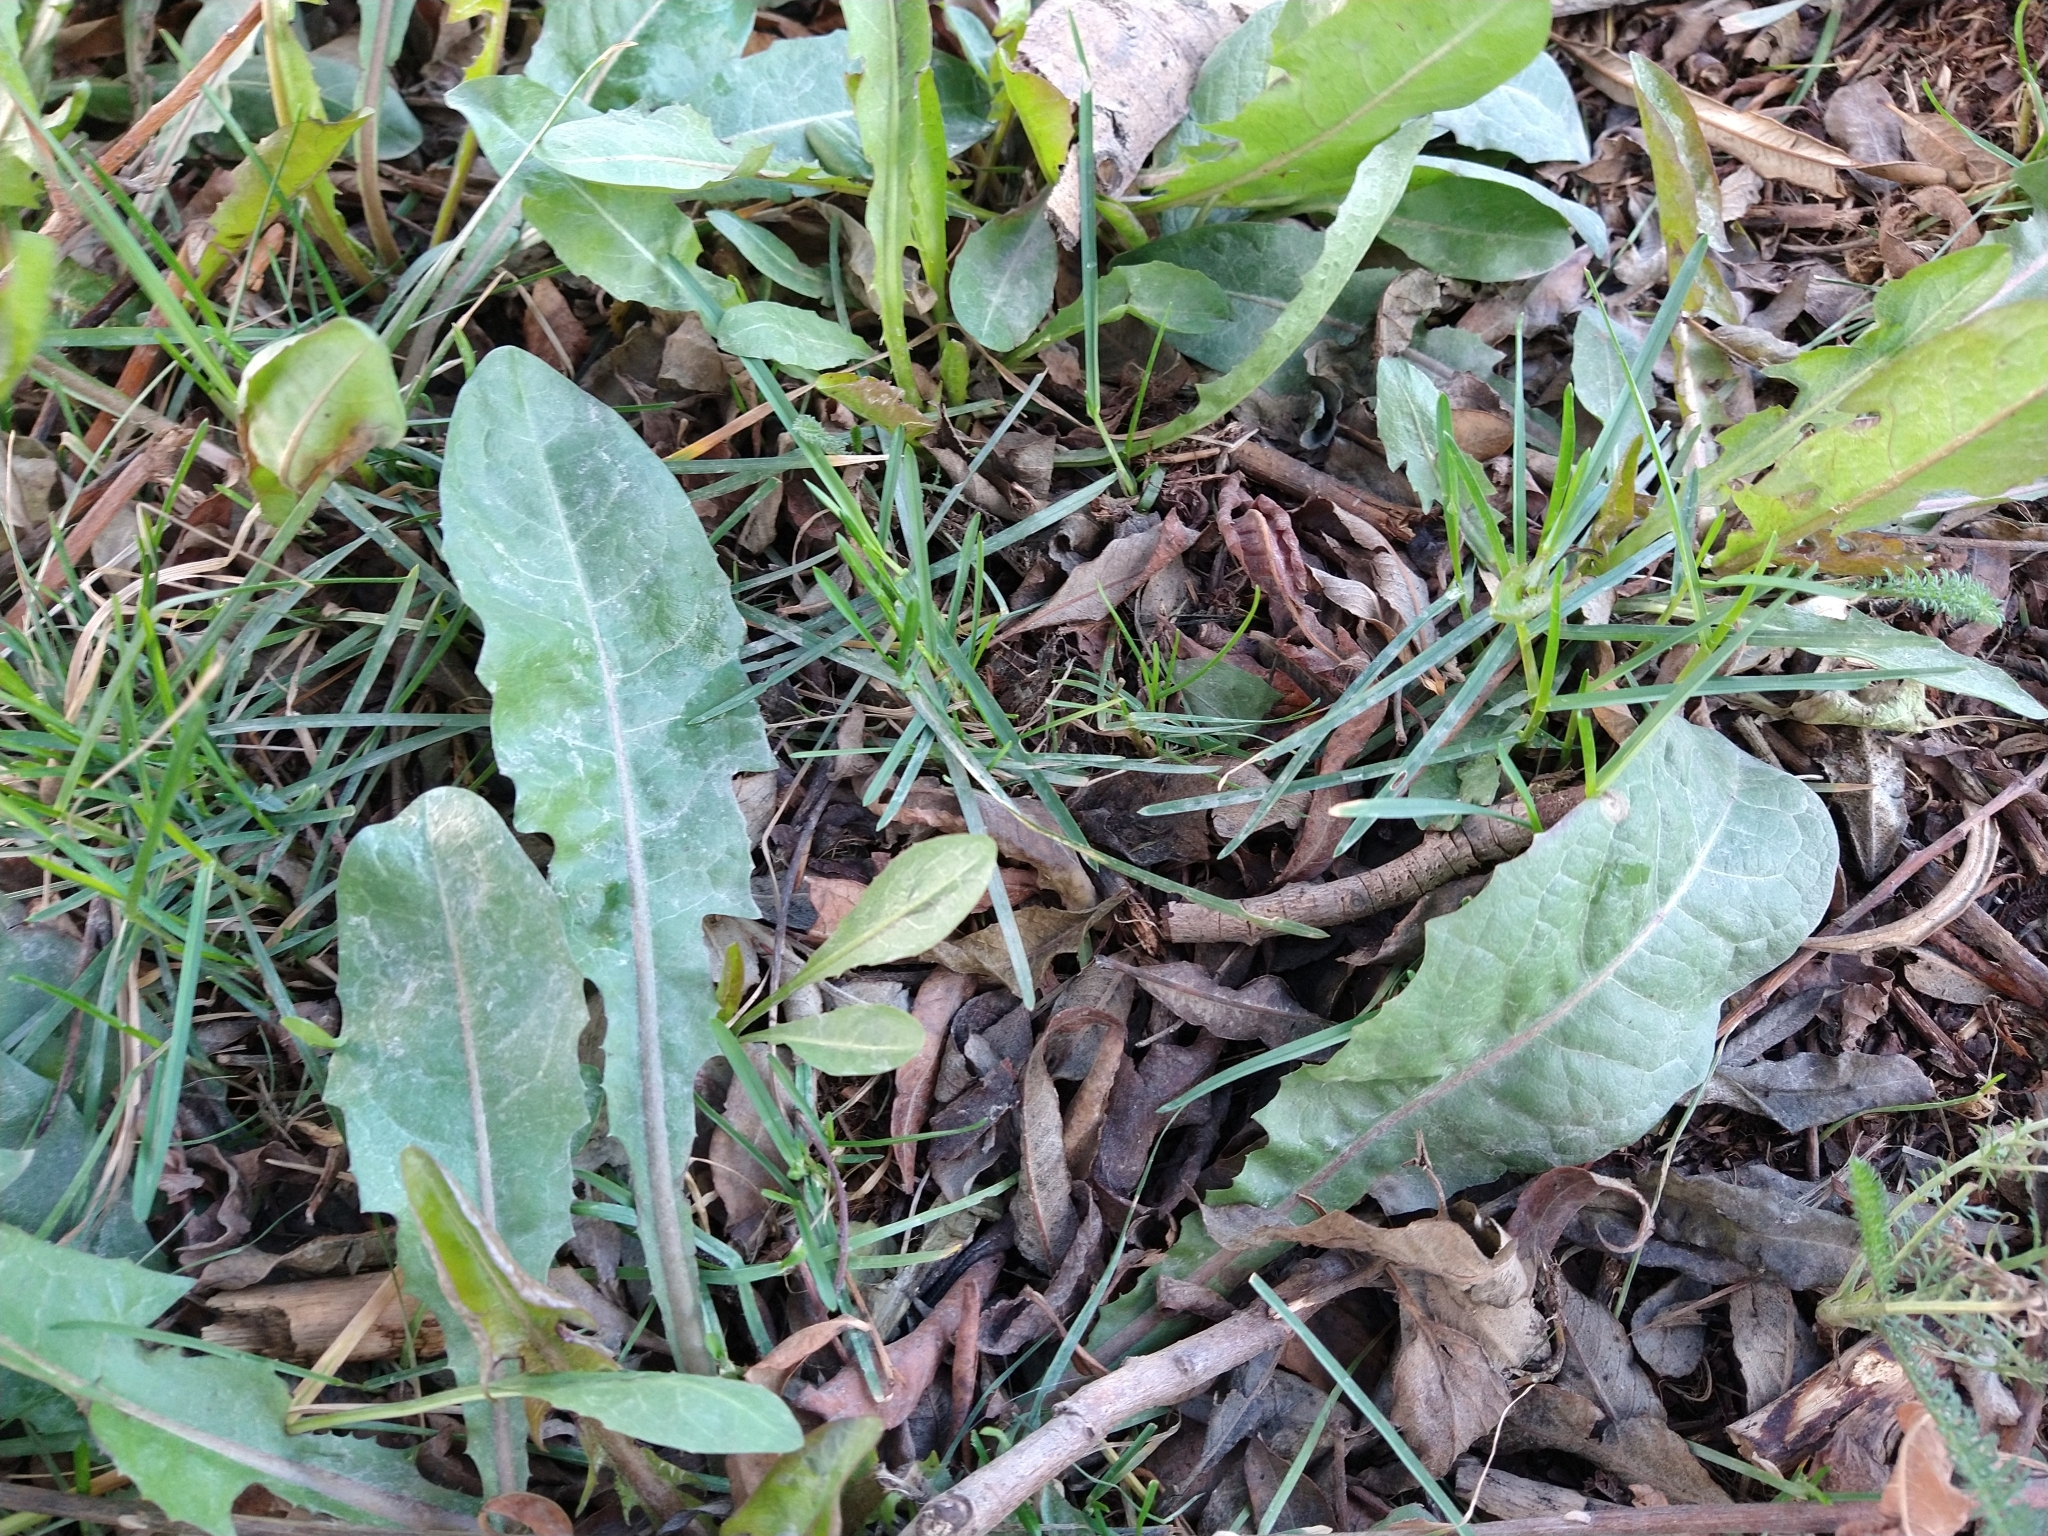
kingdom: Plantae
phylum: Tracheophyta
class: Magnoliopsida
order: Asterales
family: Asteraceae
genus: Taraxacum
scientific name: Taraxacum officinale
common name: Common dandelion
